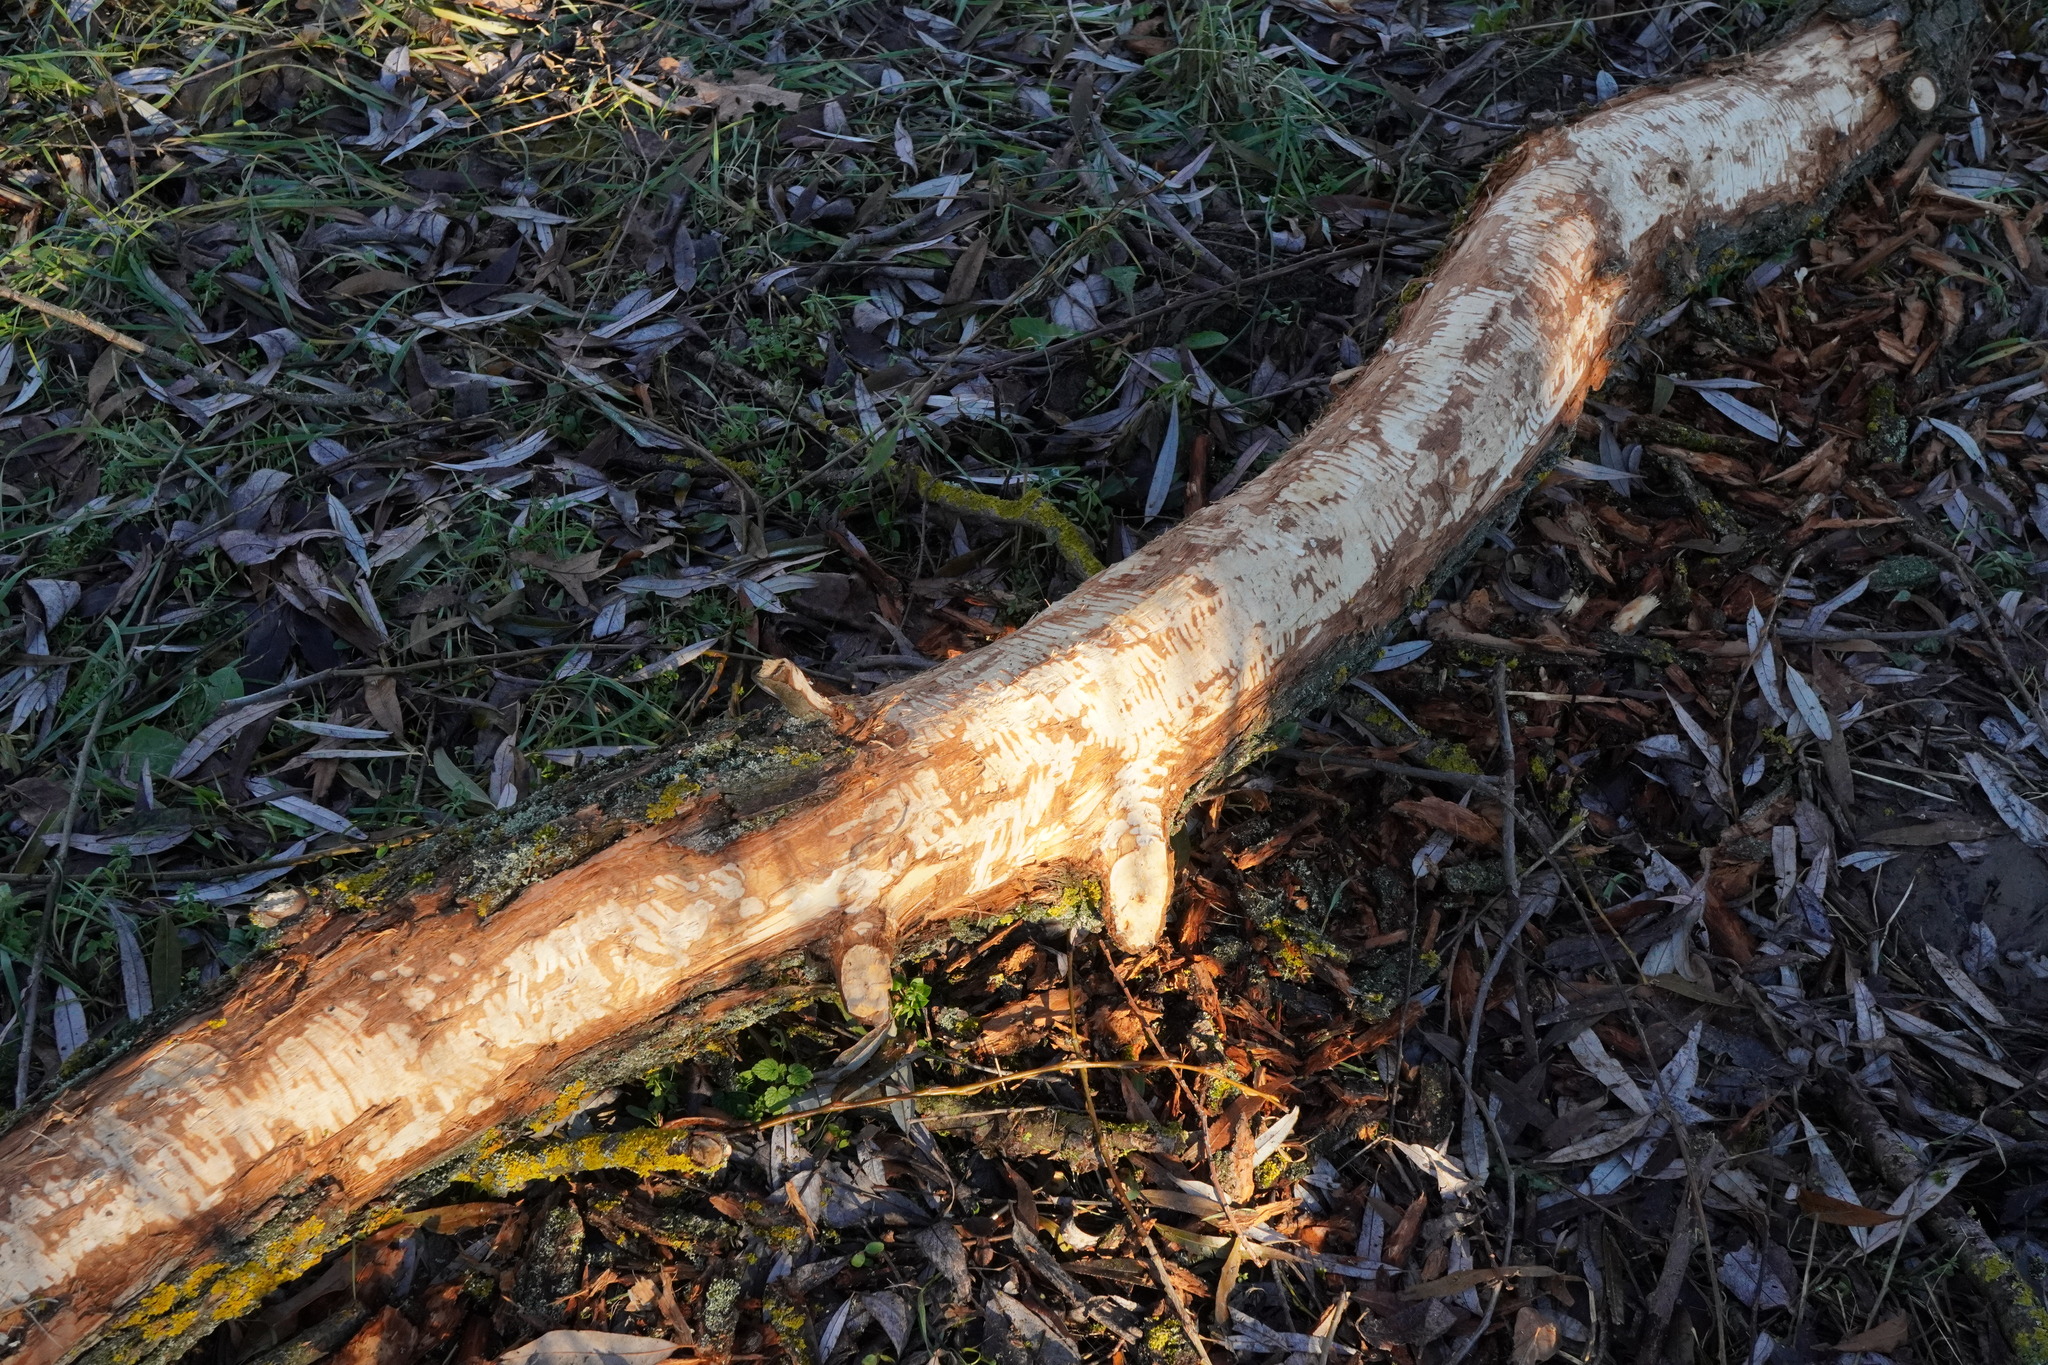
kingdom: Animalia
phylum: Chordata
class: Mammalia
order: Rodentia
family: Castoridae
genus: Castor
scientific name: Castor fiber
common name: Eurasian beaver
